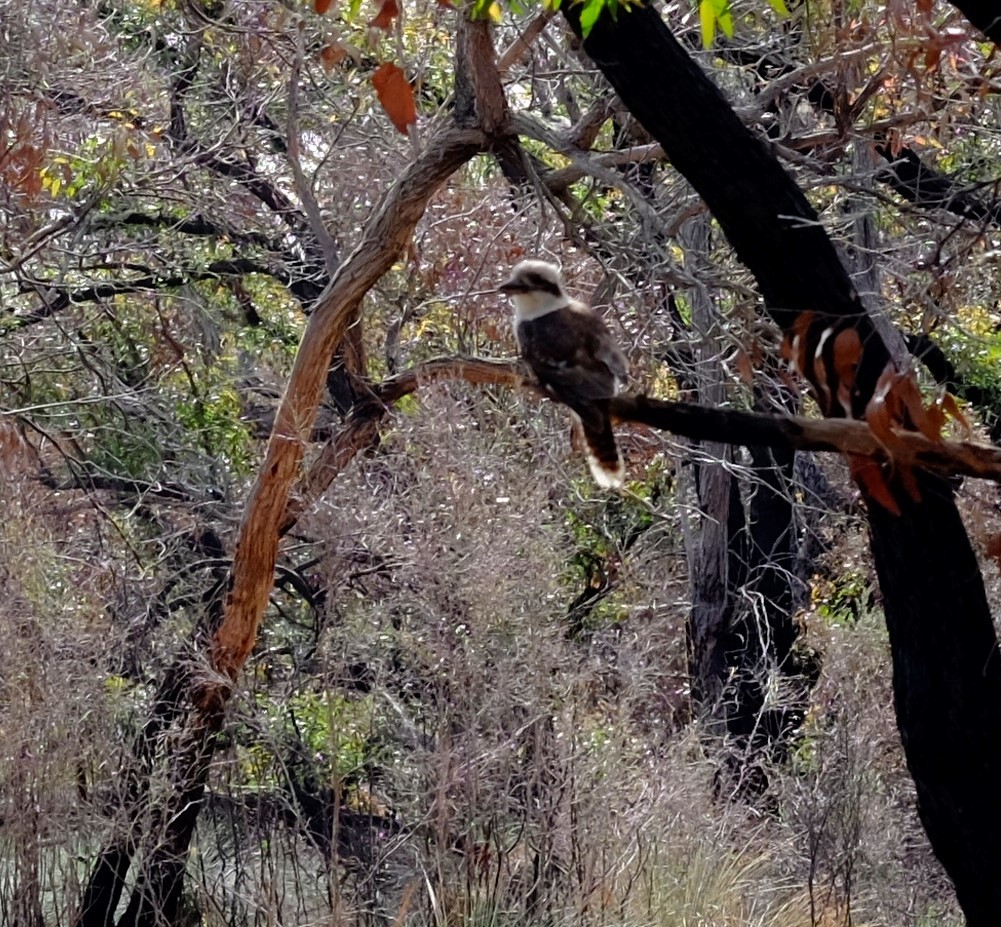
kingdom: Animalia
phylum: Chordata
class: Aves
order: Coraciiformes
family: Alcedinidae
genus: Dacelo
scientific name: Dacelo novaeguineae
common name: Laughing kookaburra
